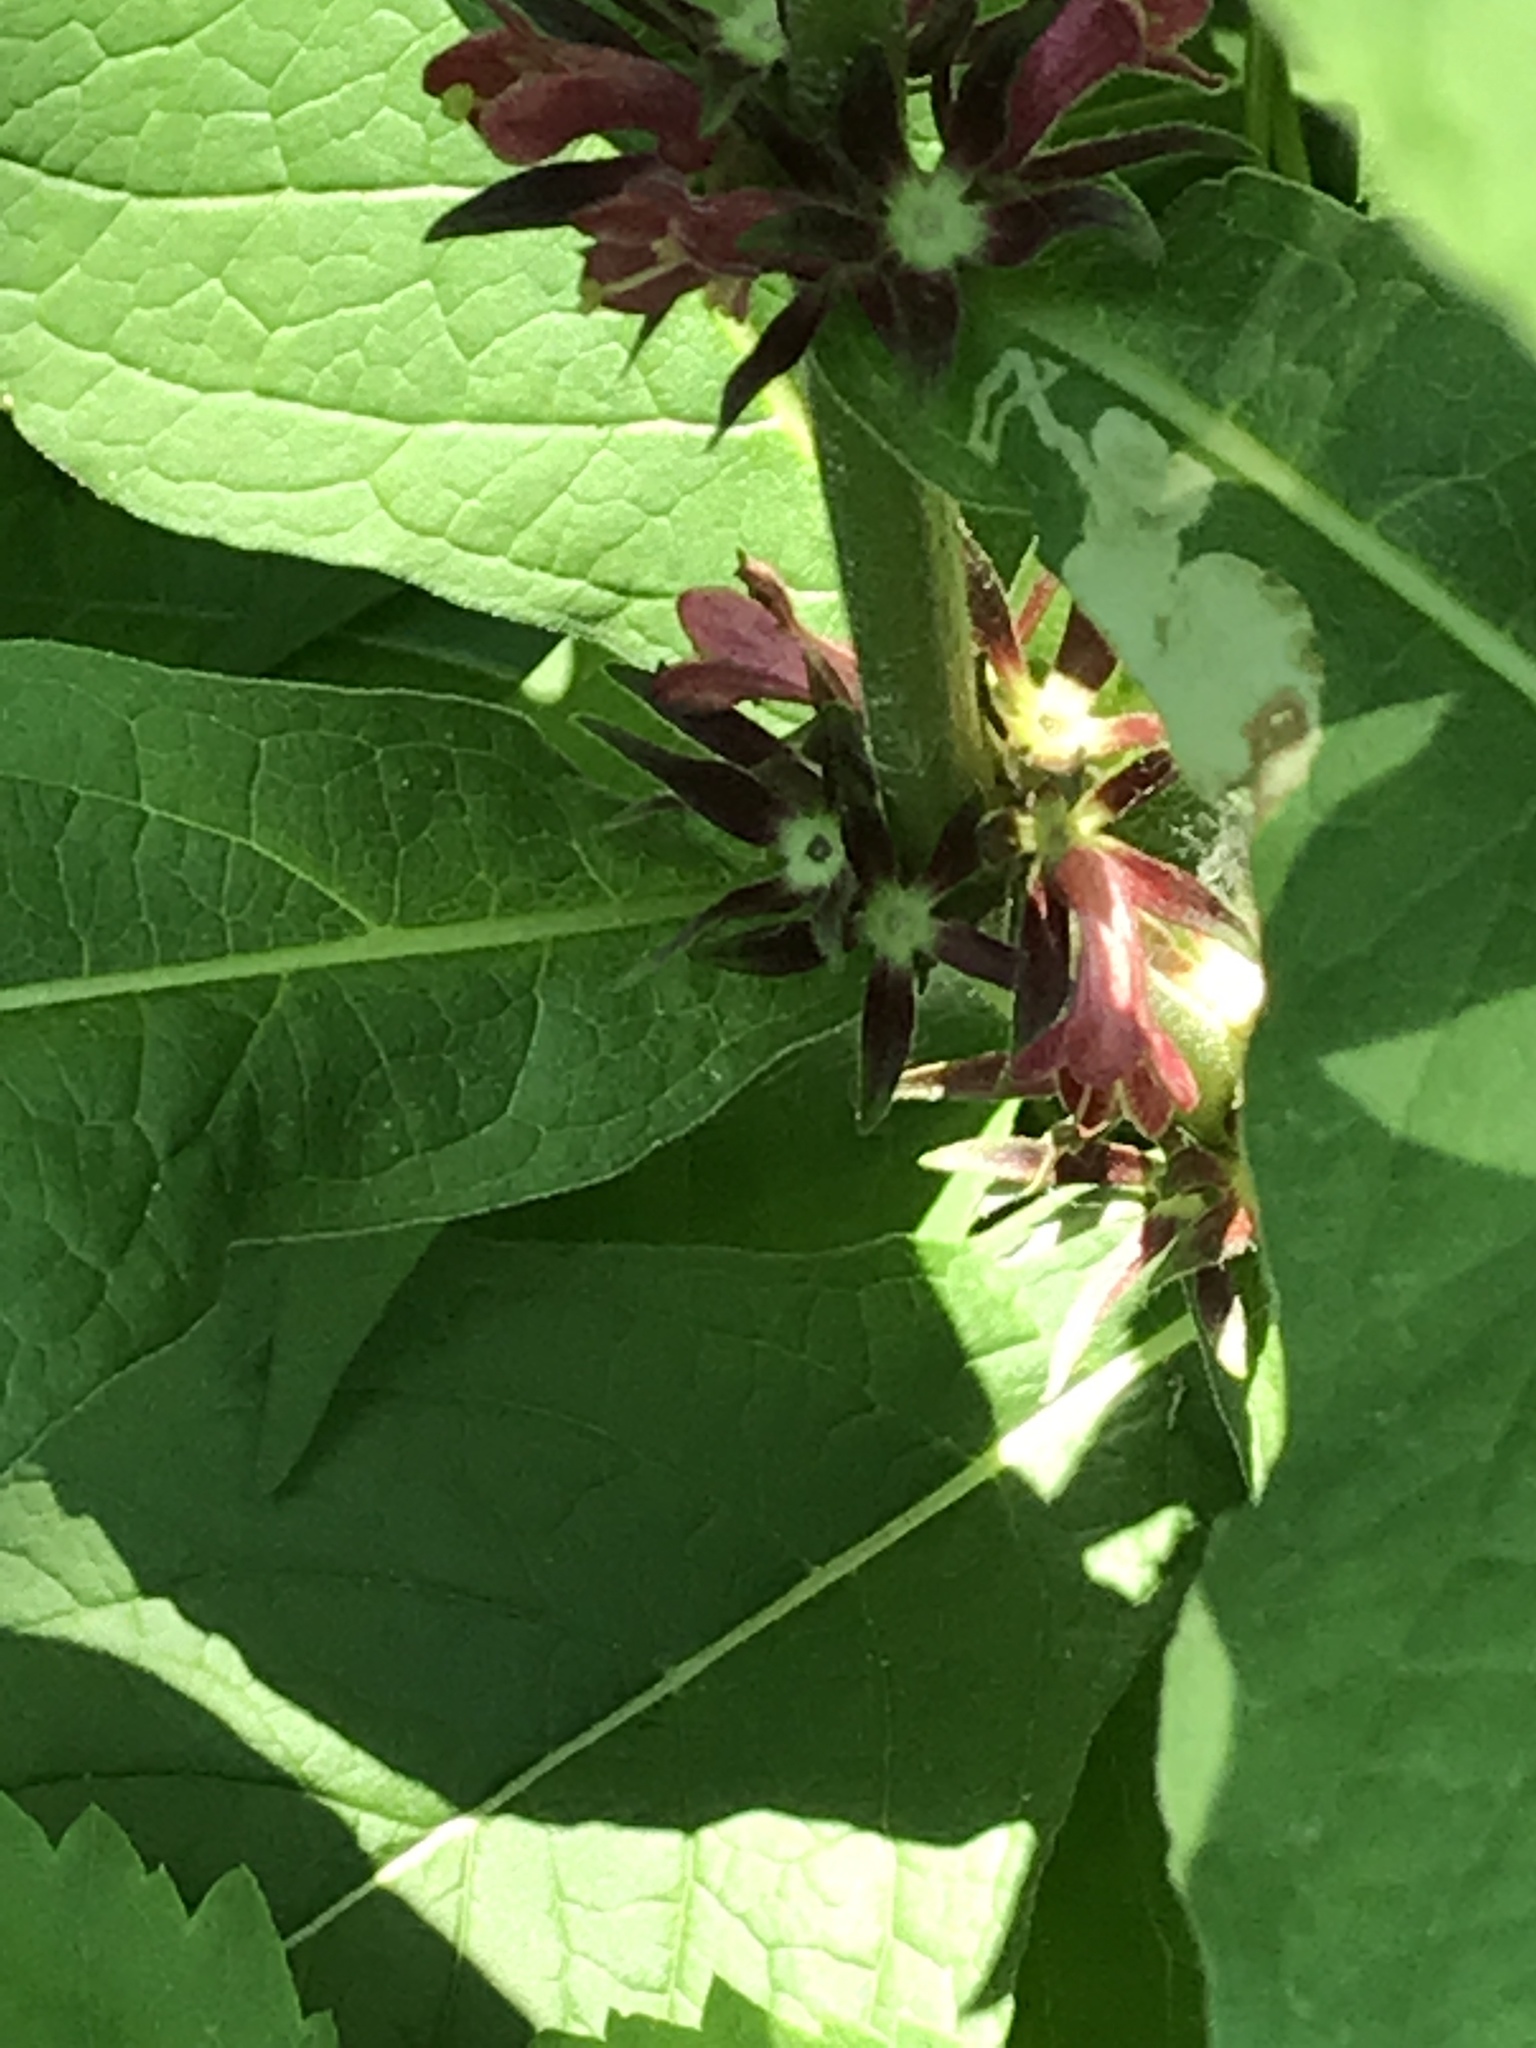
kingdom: Plantae
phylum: Tracheophyta
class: Magnoliopsida
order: Dipsacales
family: Caprifoliaceae
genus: Triosteum
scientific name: Triosteum aurantiacum
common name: Coffee tinker's-weed
